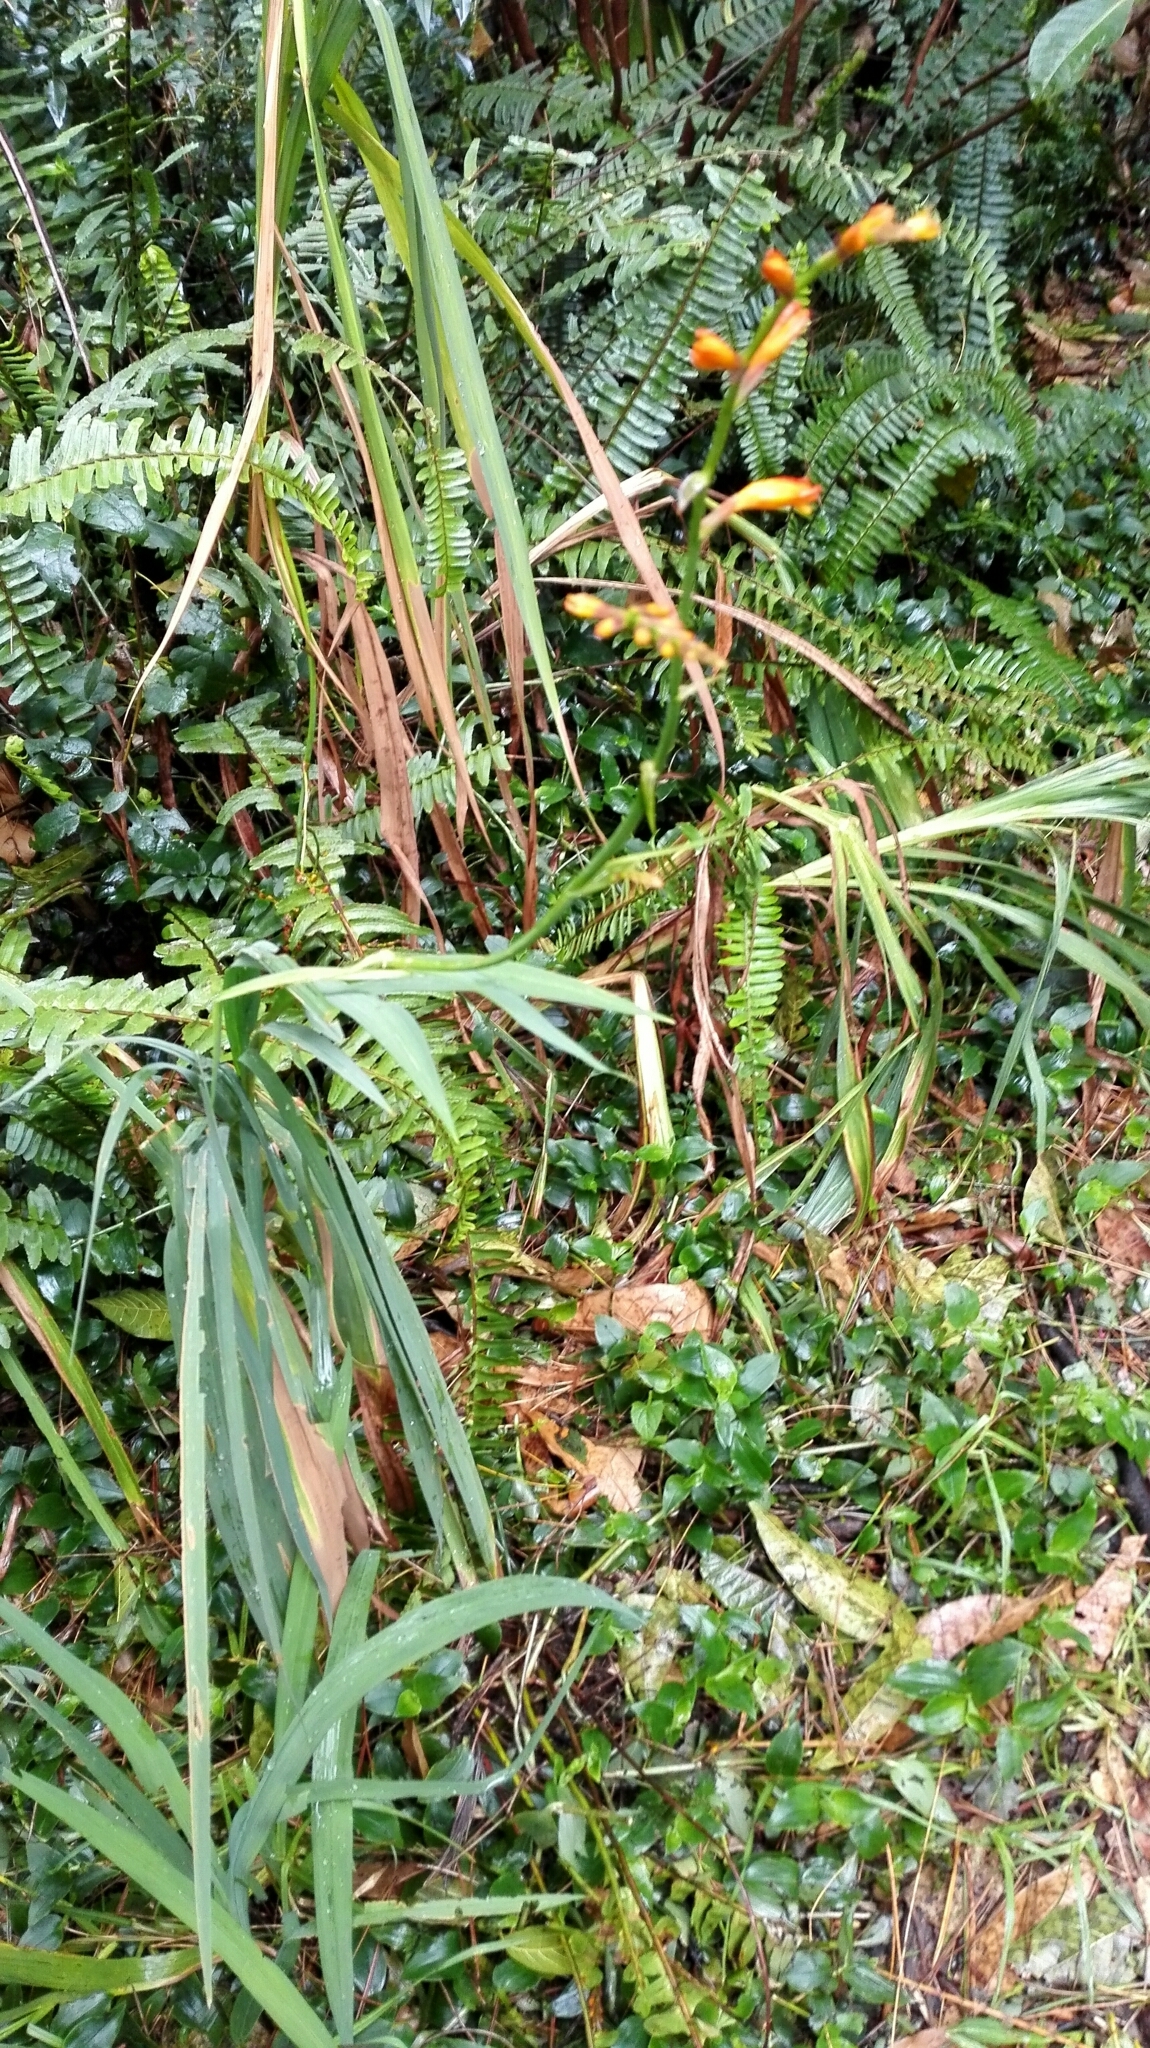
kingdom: Plantae
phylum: Tracheophyta
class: Liliopsida
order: Asparagales
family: Iridaceae
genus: Crocosmia
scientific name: Crocosmia crocosmiiflora
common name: Montbretia
